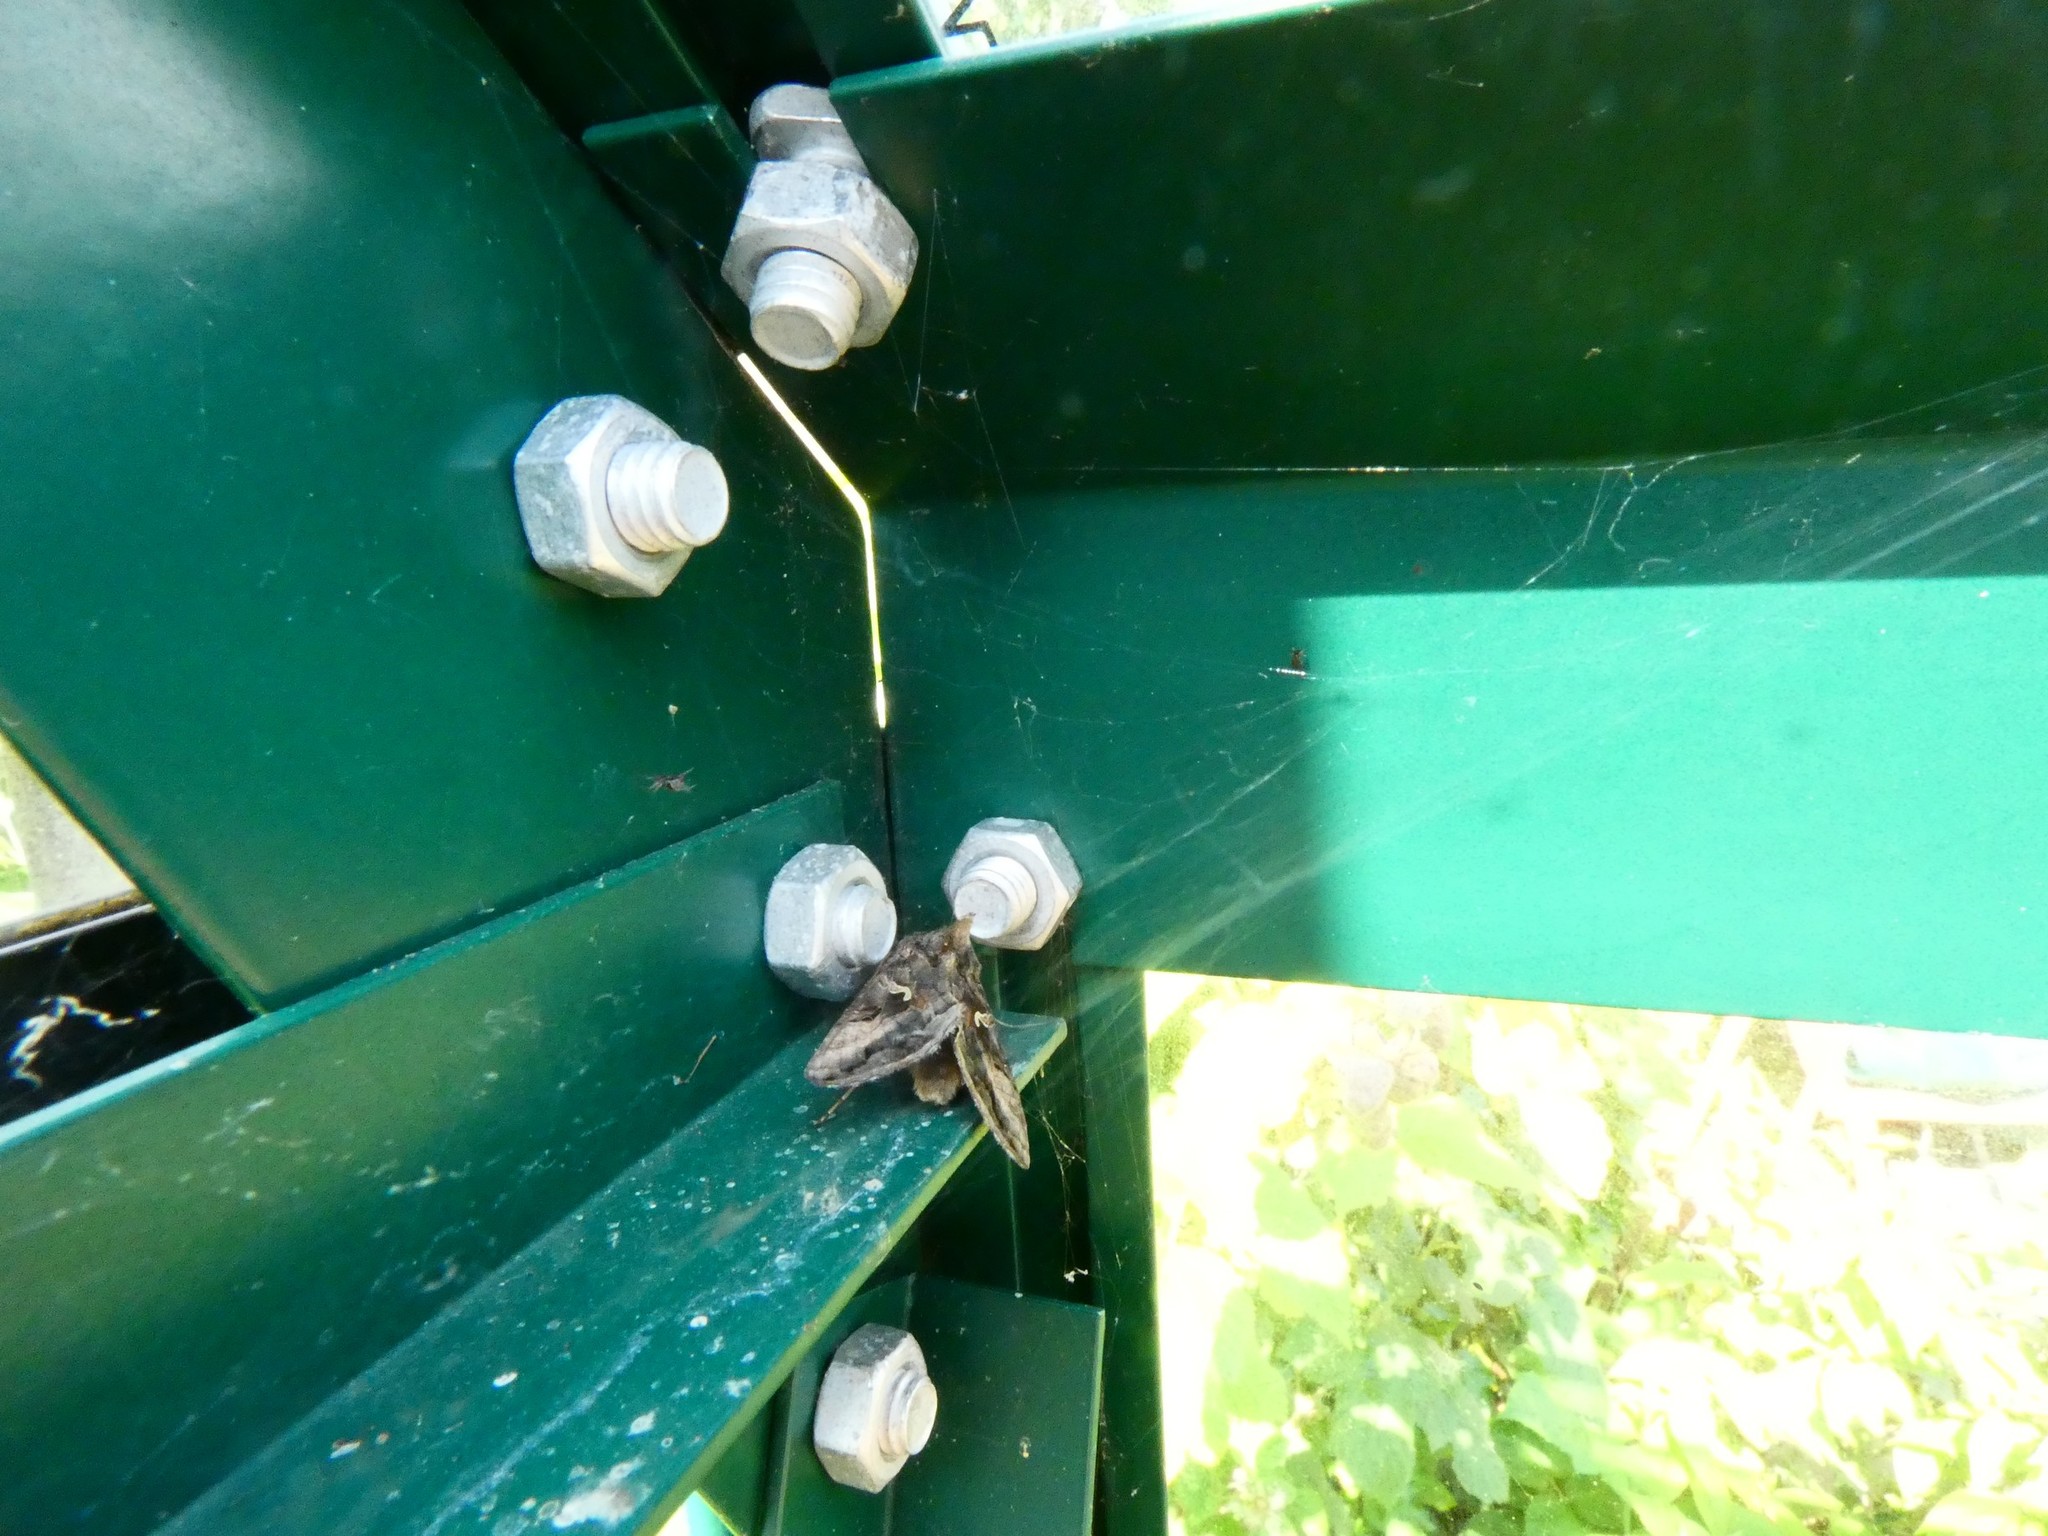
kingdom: Animalia
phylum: Arthropoda
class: Insecta
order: Lepidoptera
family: Noctuidae
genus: Autographa
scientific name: Autographa gamma
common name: Silver y
